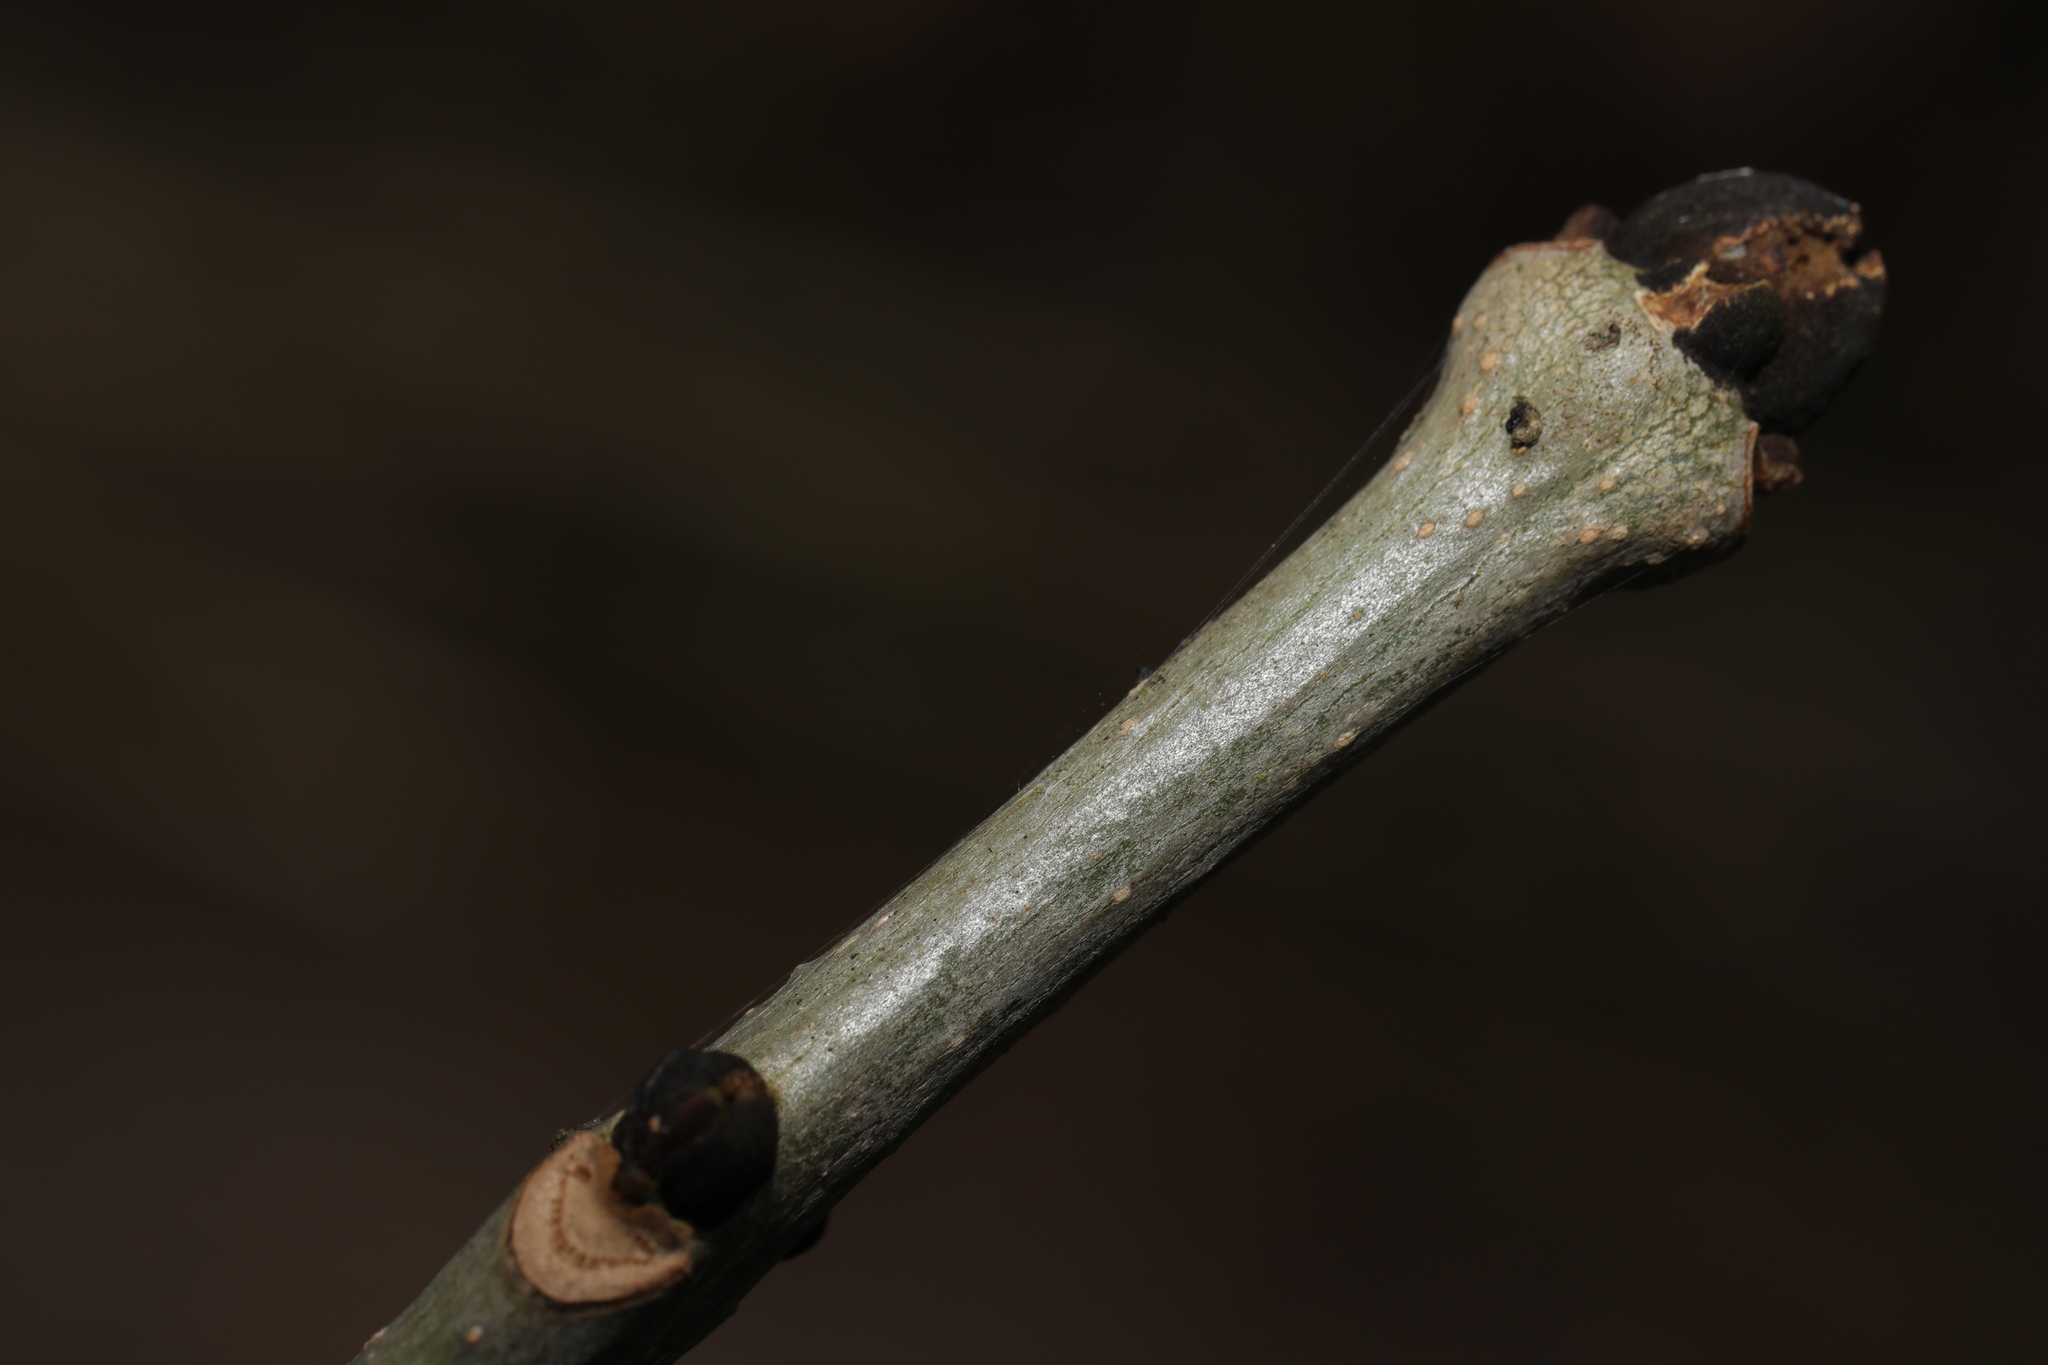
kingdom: Plantae
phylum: Tracheophyta
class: Magnoliopsida
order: Lamiales
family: Oleaceae
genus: Fraxinus
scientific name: Fraxinus excelsior
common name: European ash
